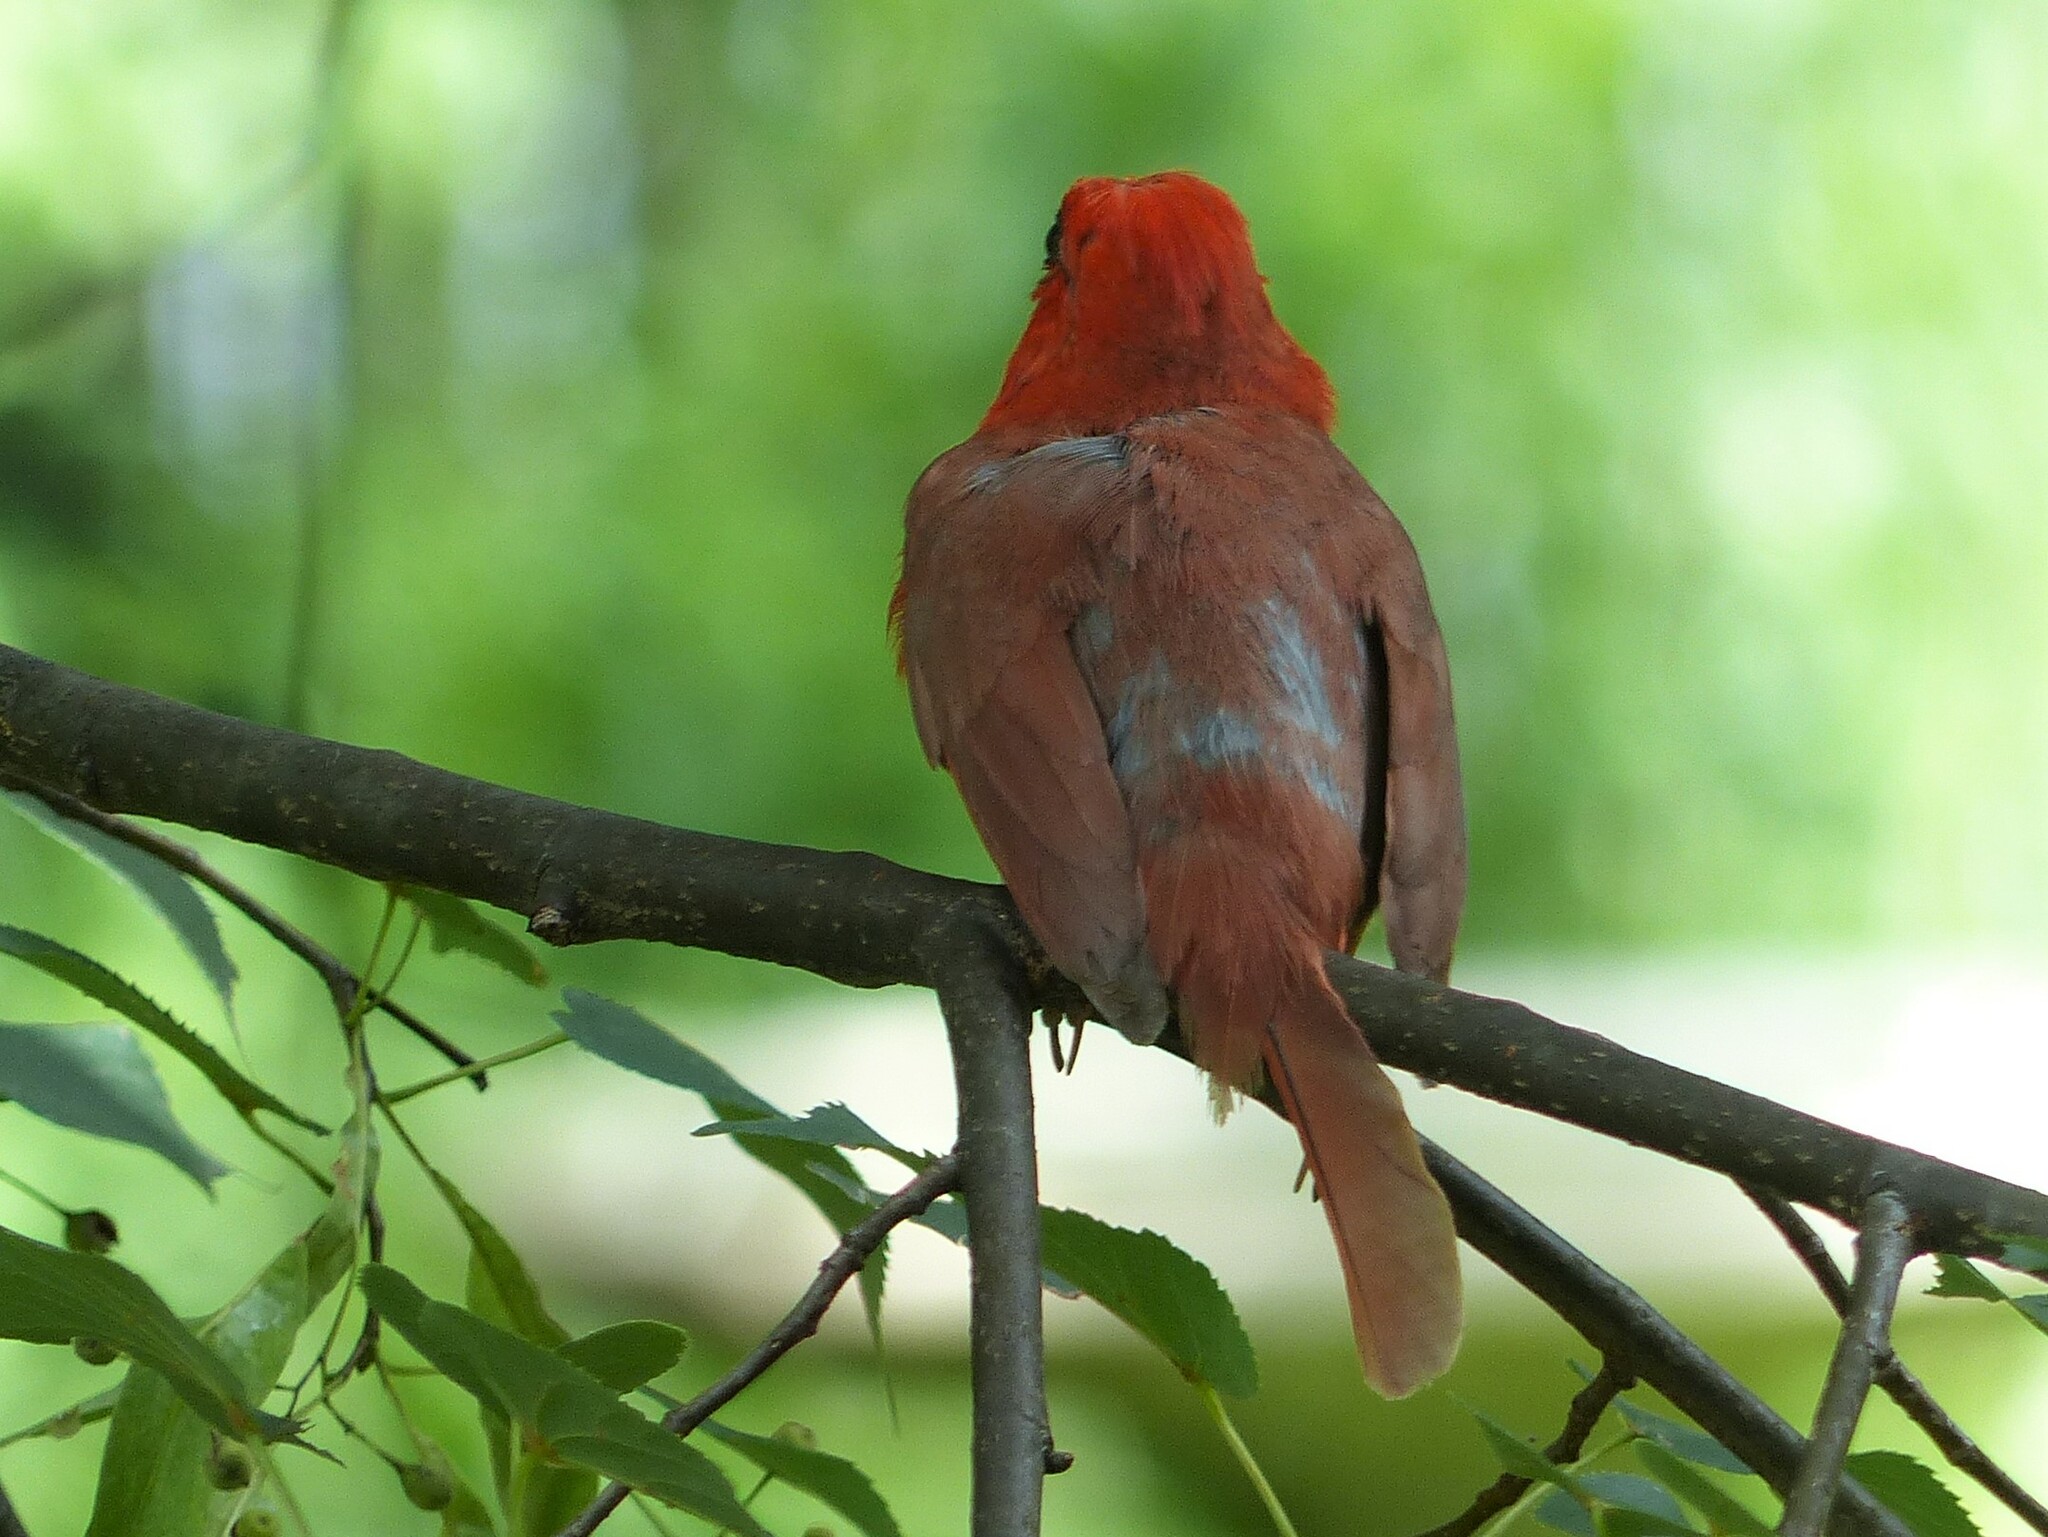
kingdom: Animalia
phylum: Chordata
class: Aves
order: Passeriformes
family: Cardinalidae
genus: Cardinalis
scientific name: Cardinalis cardinalis
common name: Northern cardinal
